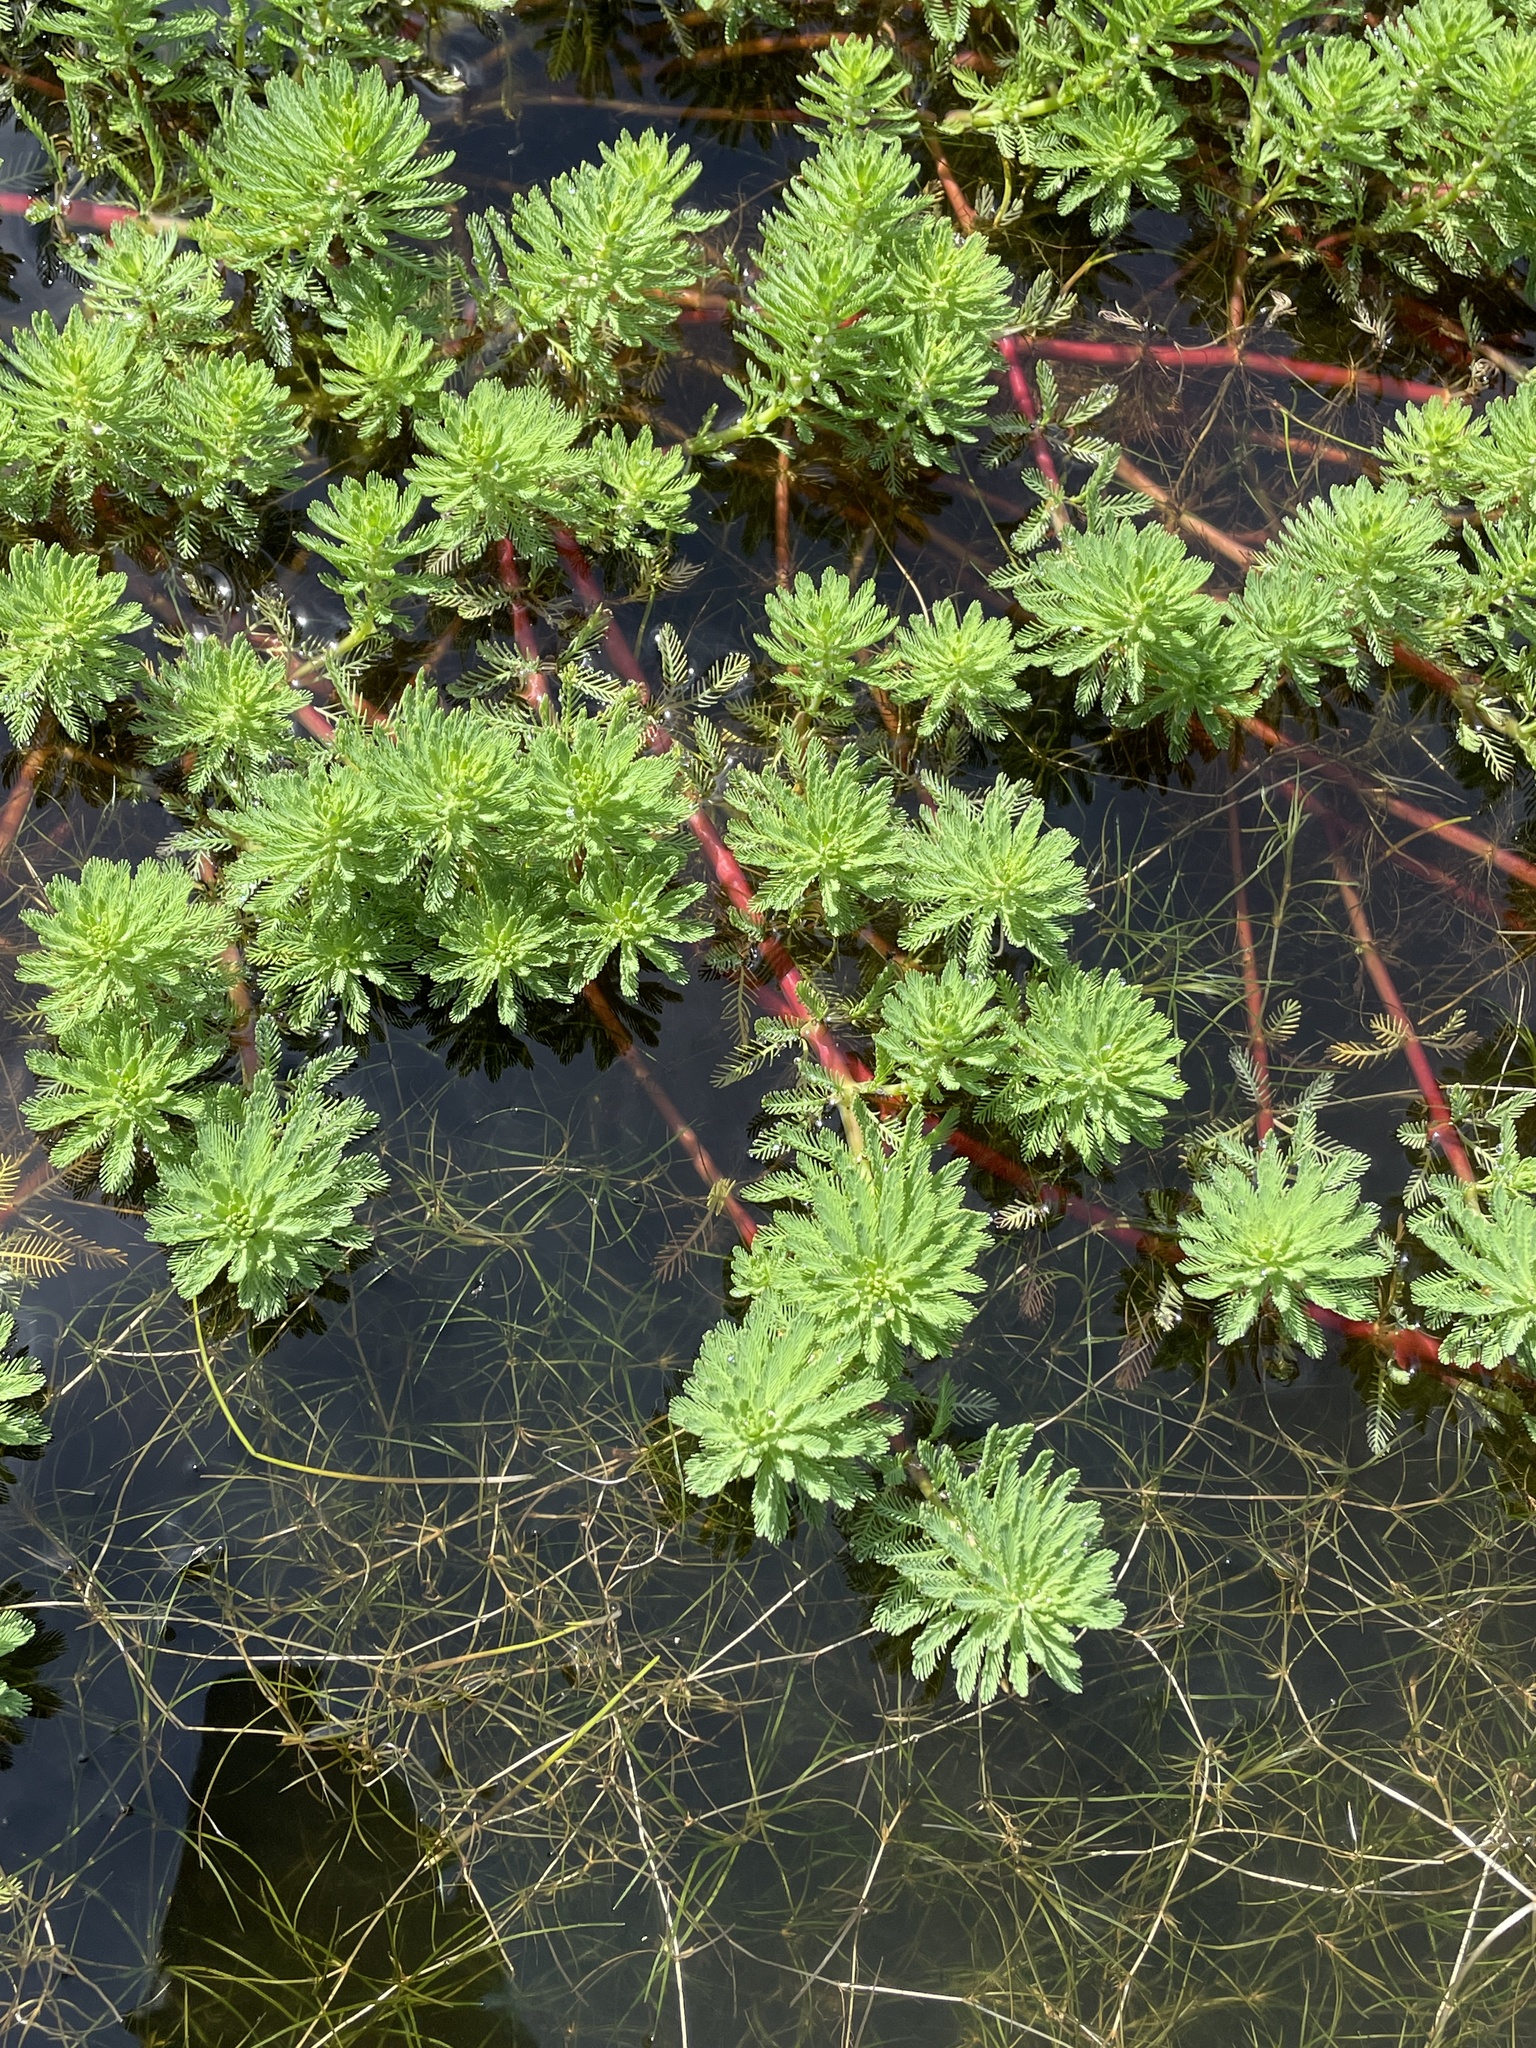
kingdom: Plantae
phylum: Tracheophyta
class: Magnoliopsida
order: Saxifragales
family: Haloragaceae
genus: Myriophyllum
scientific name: Myriophyllum aquaticum
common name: Parrot's feather
